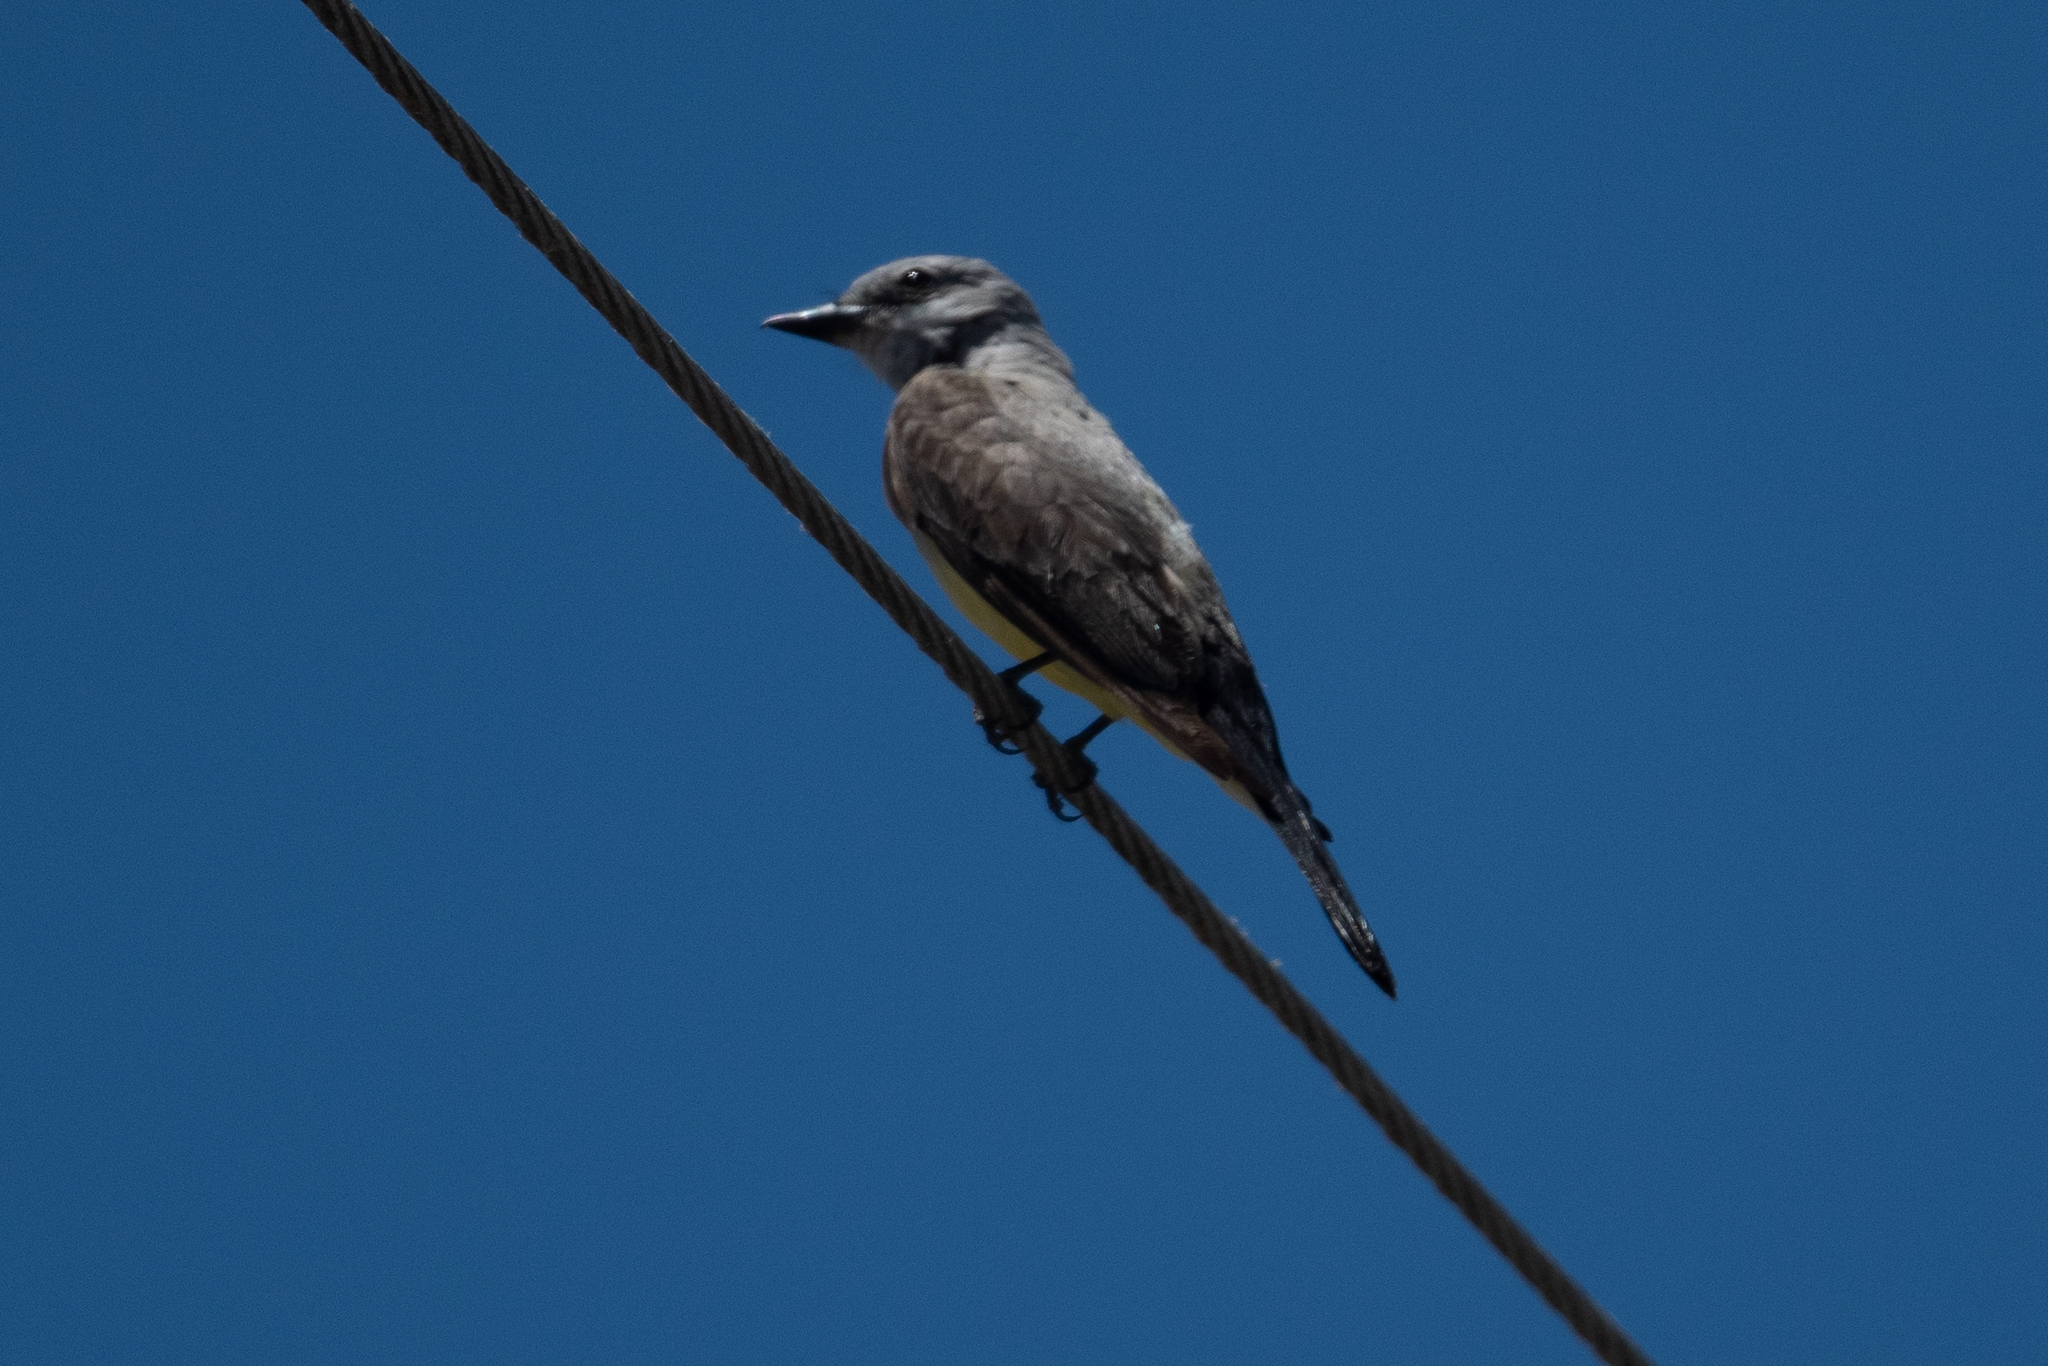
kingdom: Animalia
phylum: Chordata
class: Aves
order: Passeriformes
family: Tyrannidae
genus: Tyrannus
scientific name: Tyrannus verticalis
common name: Western kingbird
